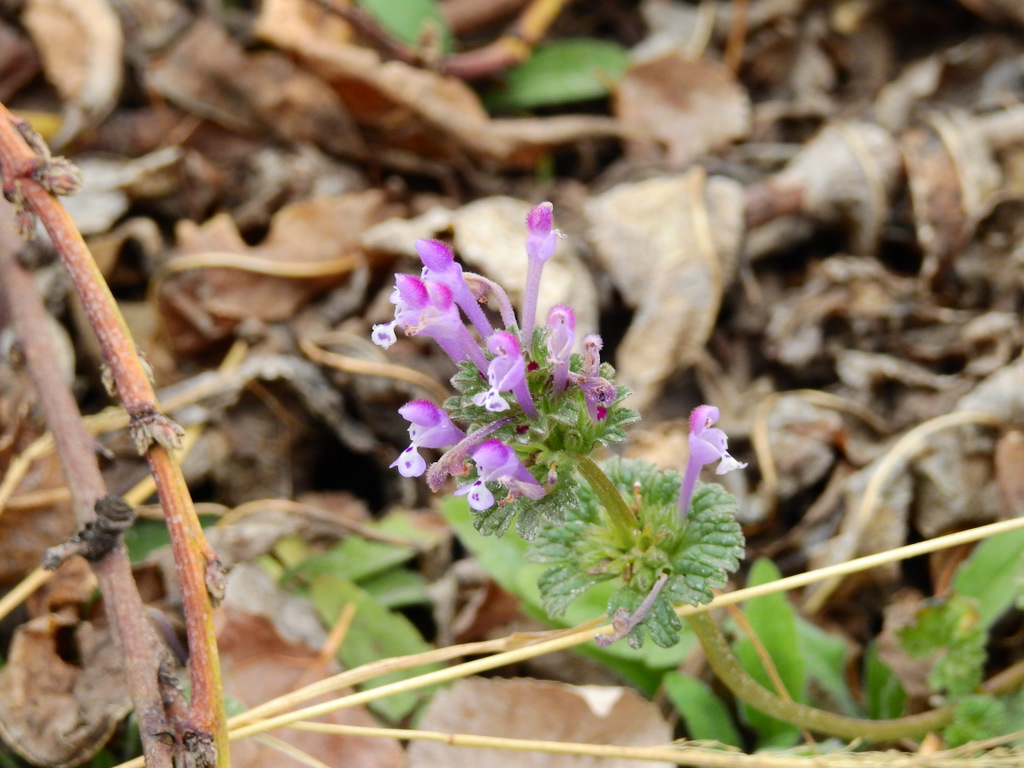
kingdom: Plantae
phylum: Tracheophyta
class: Magnoliopsida
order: Lamiales
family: Lamiaceae
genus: Lamium
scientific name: Lamium amplexicaule
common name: Henbit dead-nettle
